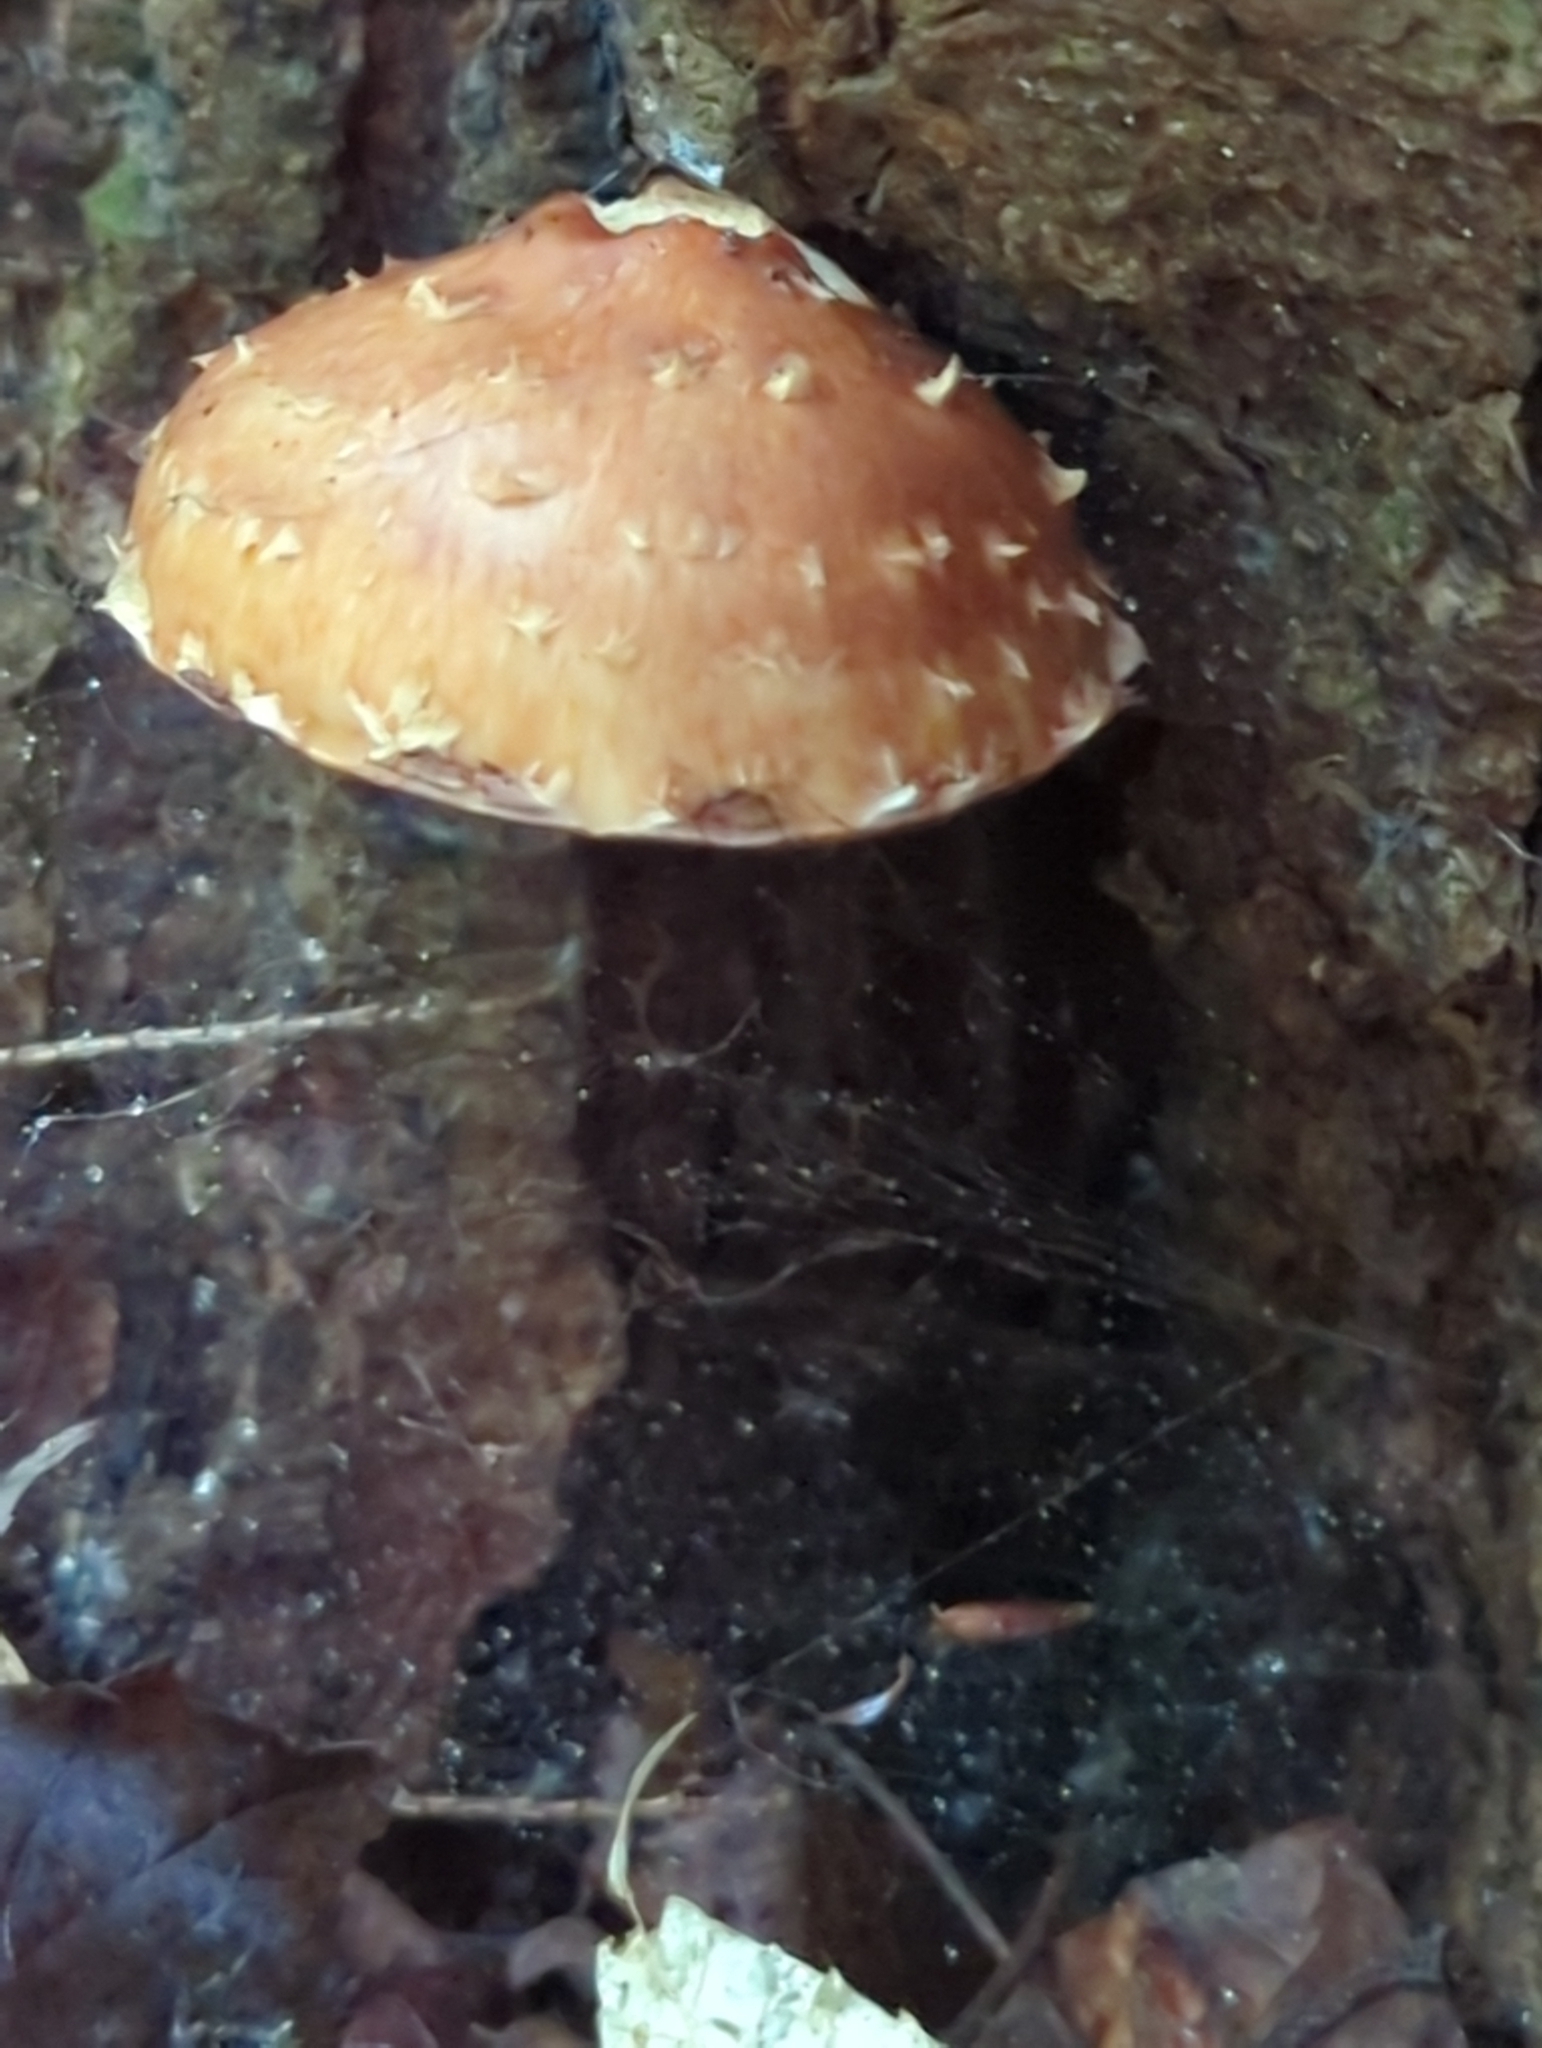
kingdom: Fungi
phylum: Basidiomycota
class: Agaricomycetes
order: Agaricales
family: Tubariaceae
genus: Hemistropharia
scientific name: Hemistropharia albocrenulata
